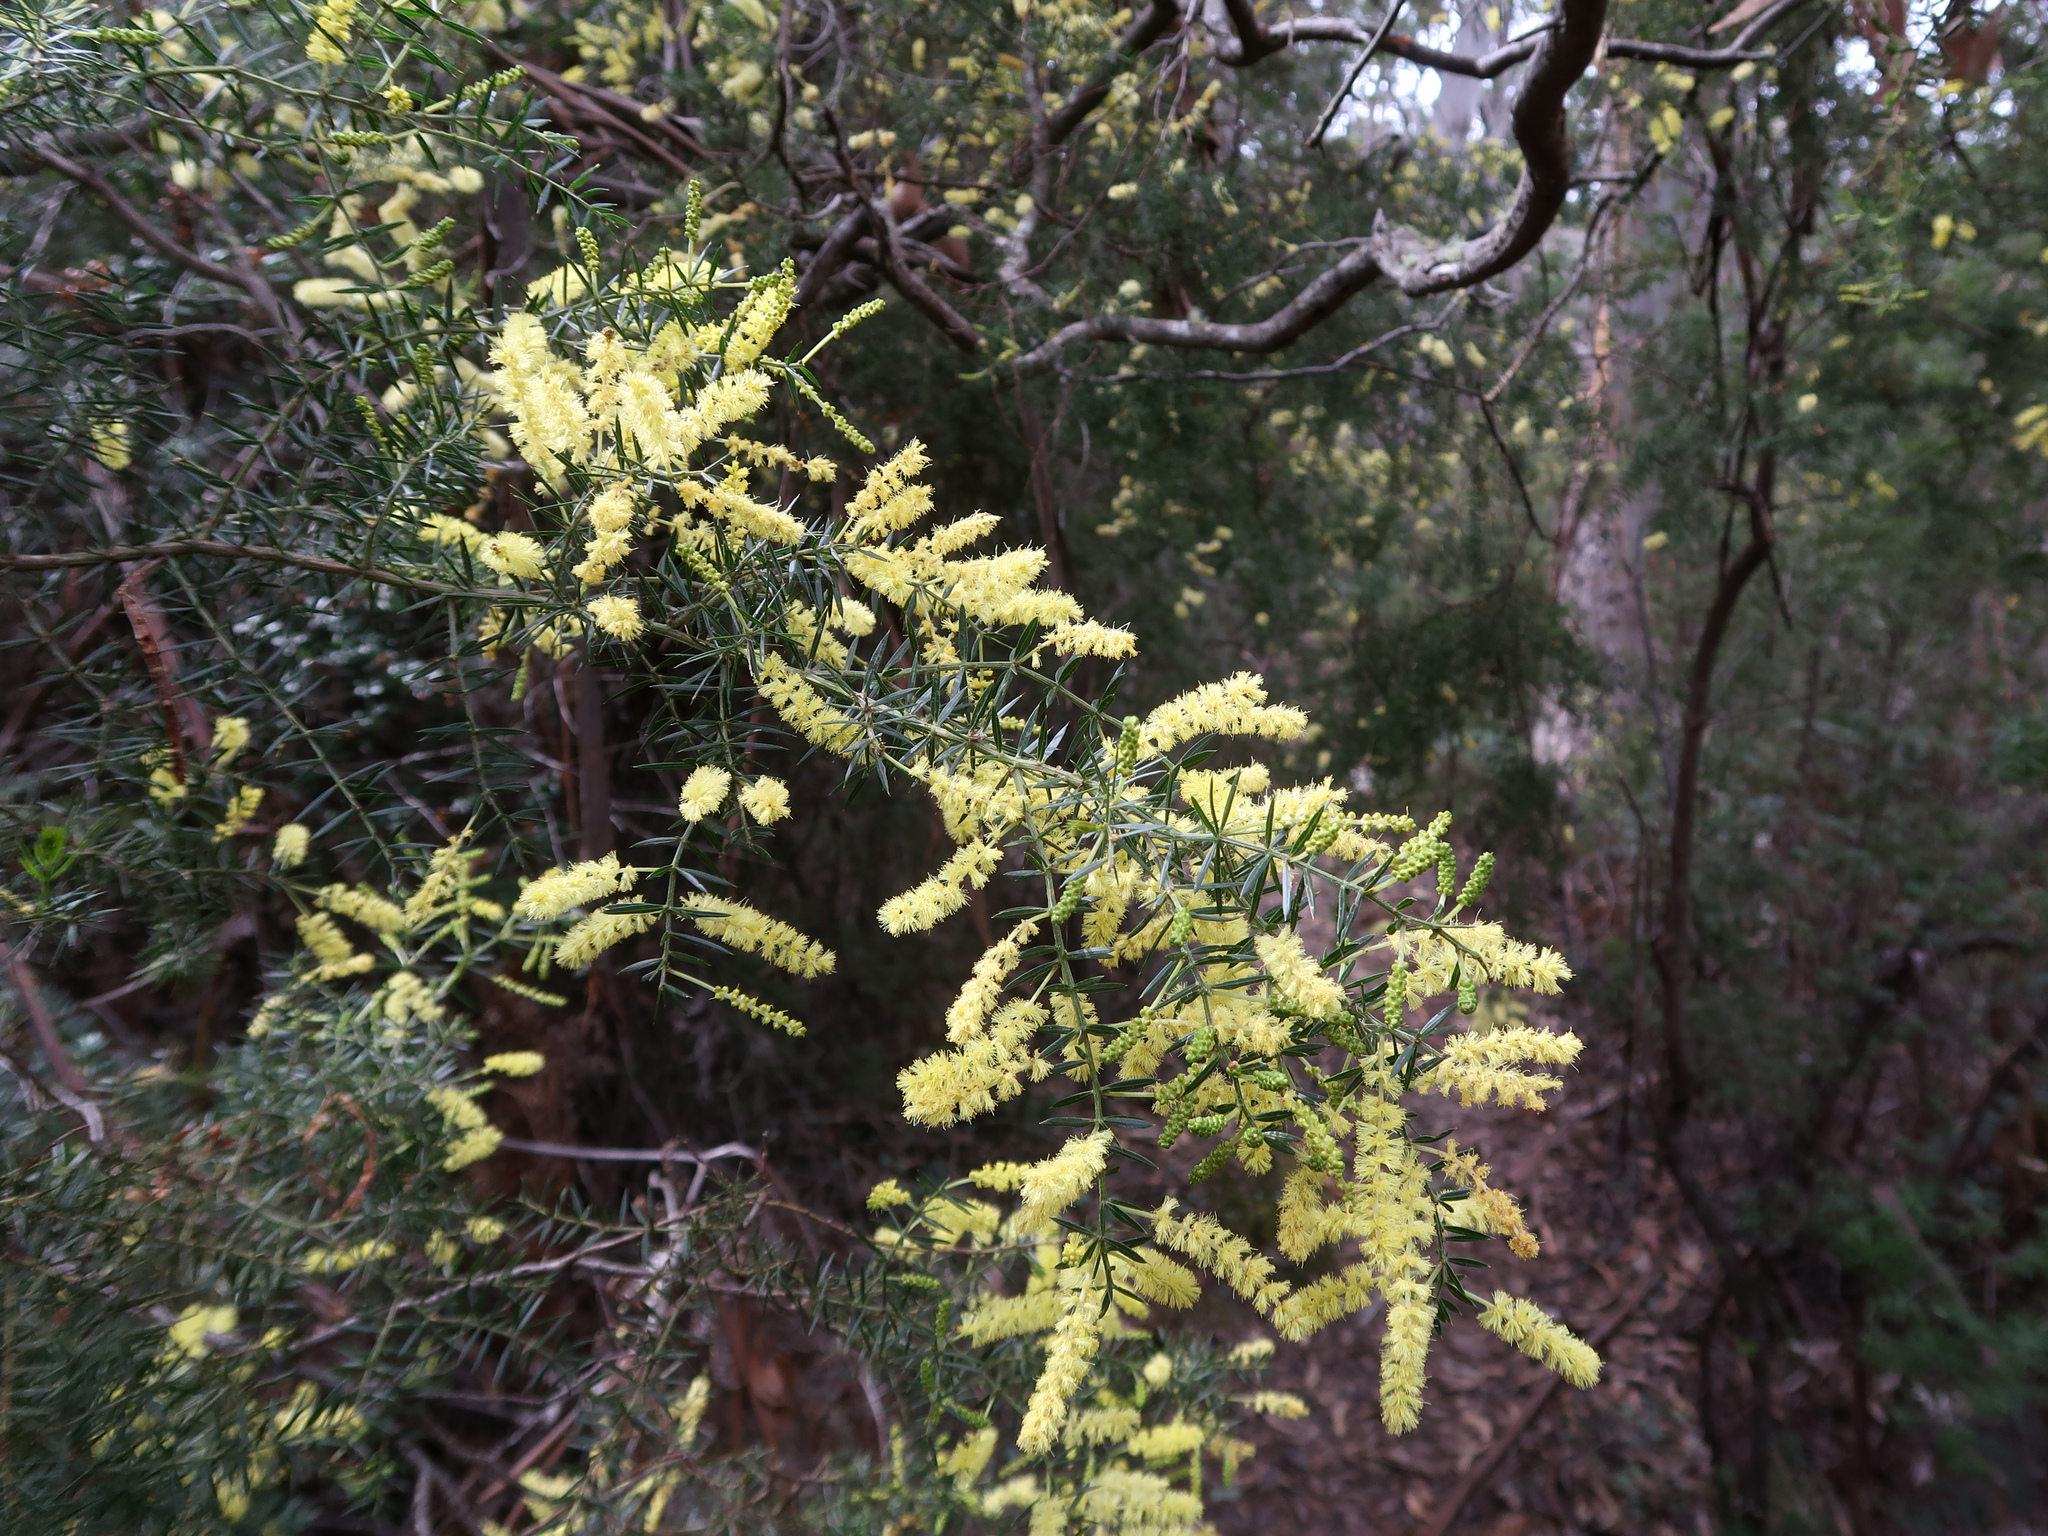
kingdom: Plantae
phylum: Tracheophyta
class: Magnoliopsida
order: Fabales
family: Fabaceae
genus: Acacia
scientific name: Acacia verticillata
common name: Prickly moses
